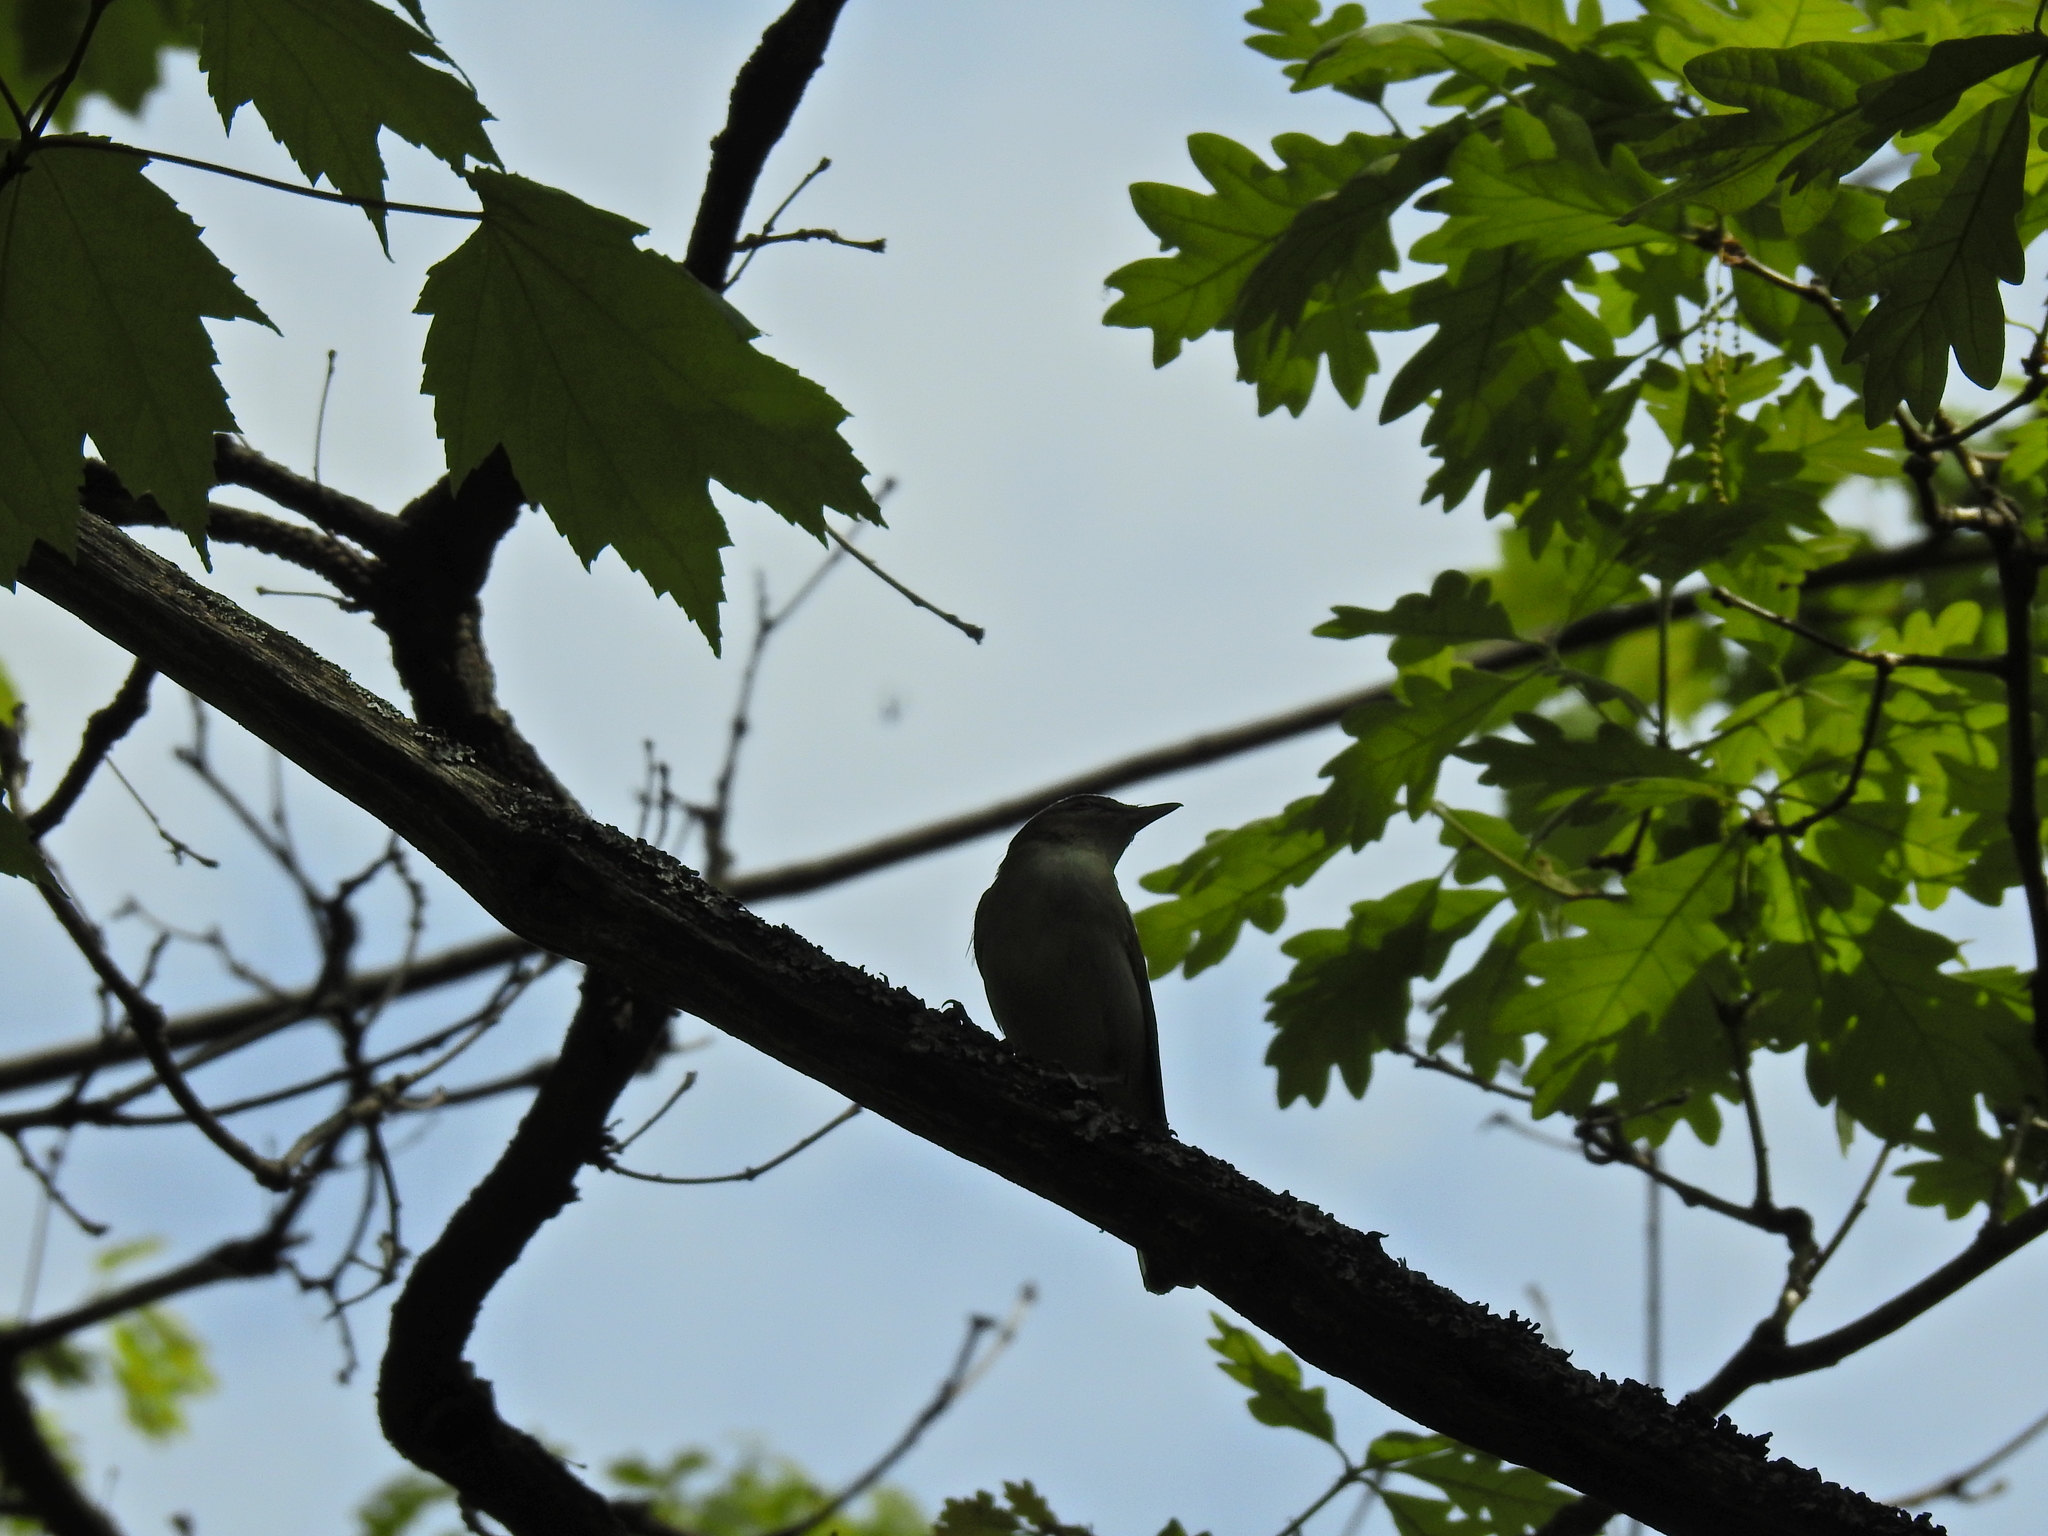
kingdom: Animalia
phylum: Chordata
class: Aves
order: Passeriformes
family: Vireonidae
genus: Vireo
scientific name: Vireo olivaceus
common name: Red-eyed vireo
